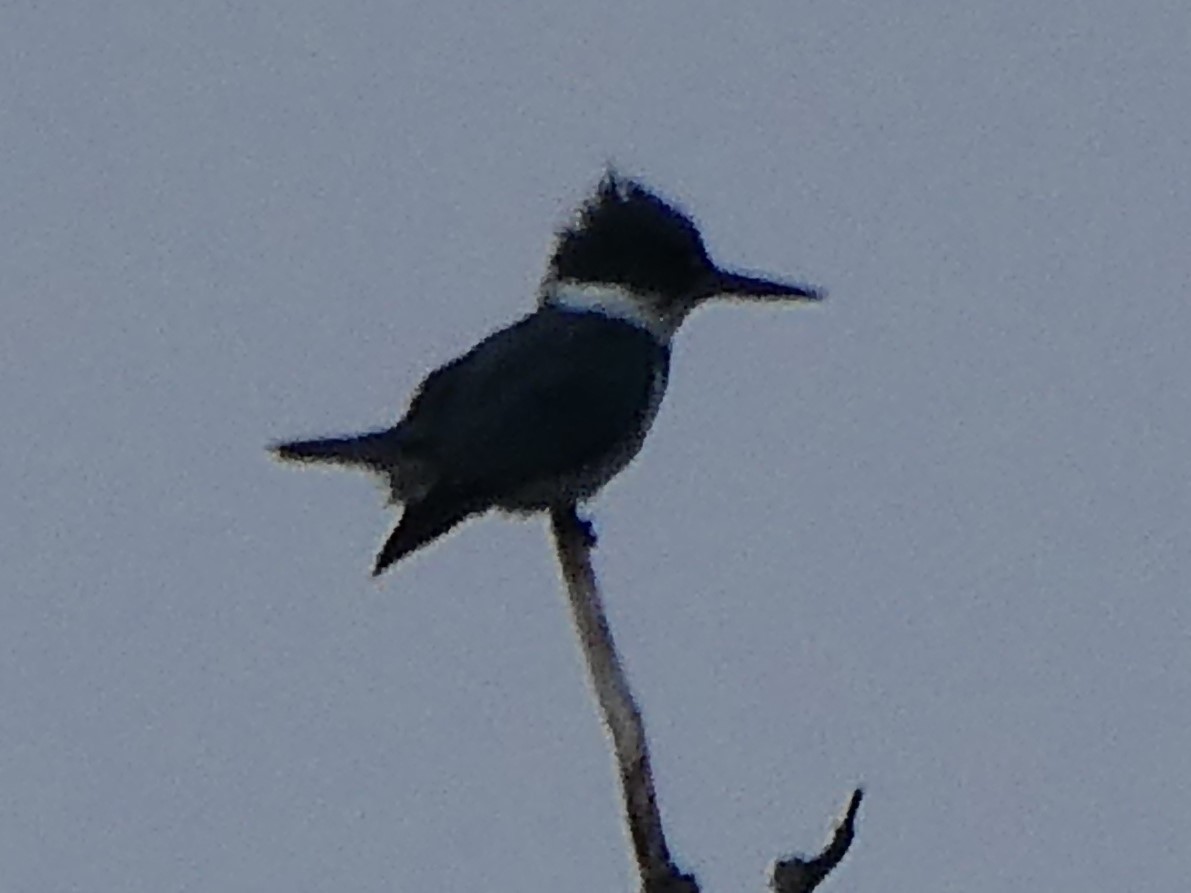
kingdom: Animalia
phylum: Chordata
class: Aves
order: Coraciiformes
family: Alcedinidae
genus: Megaceryle
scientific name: Megaceryle alcyon
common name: Belted kingfisher
